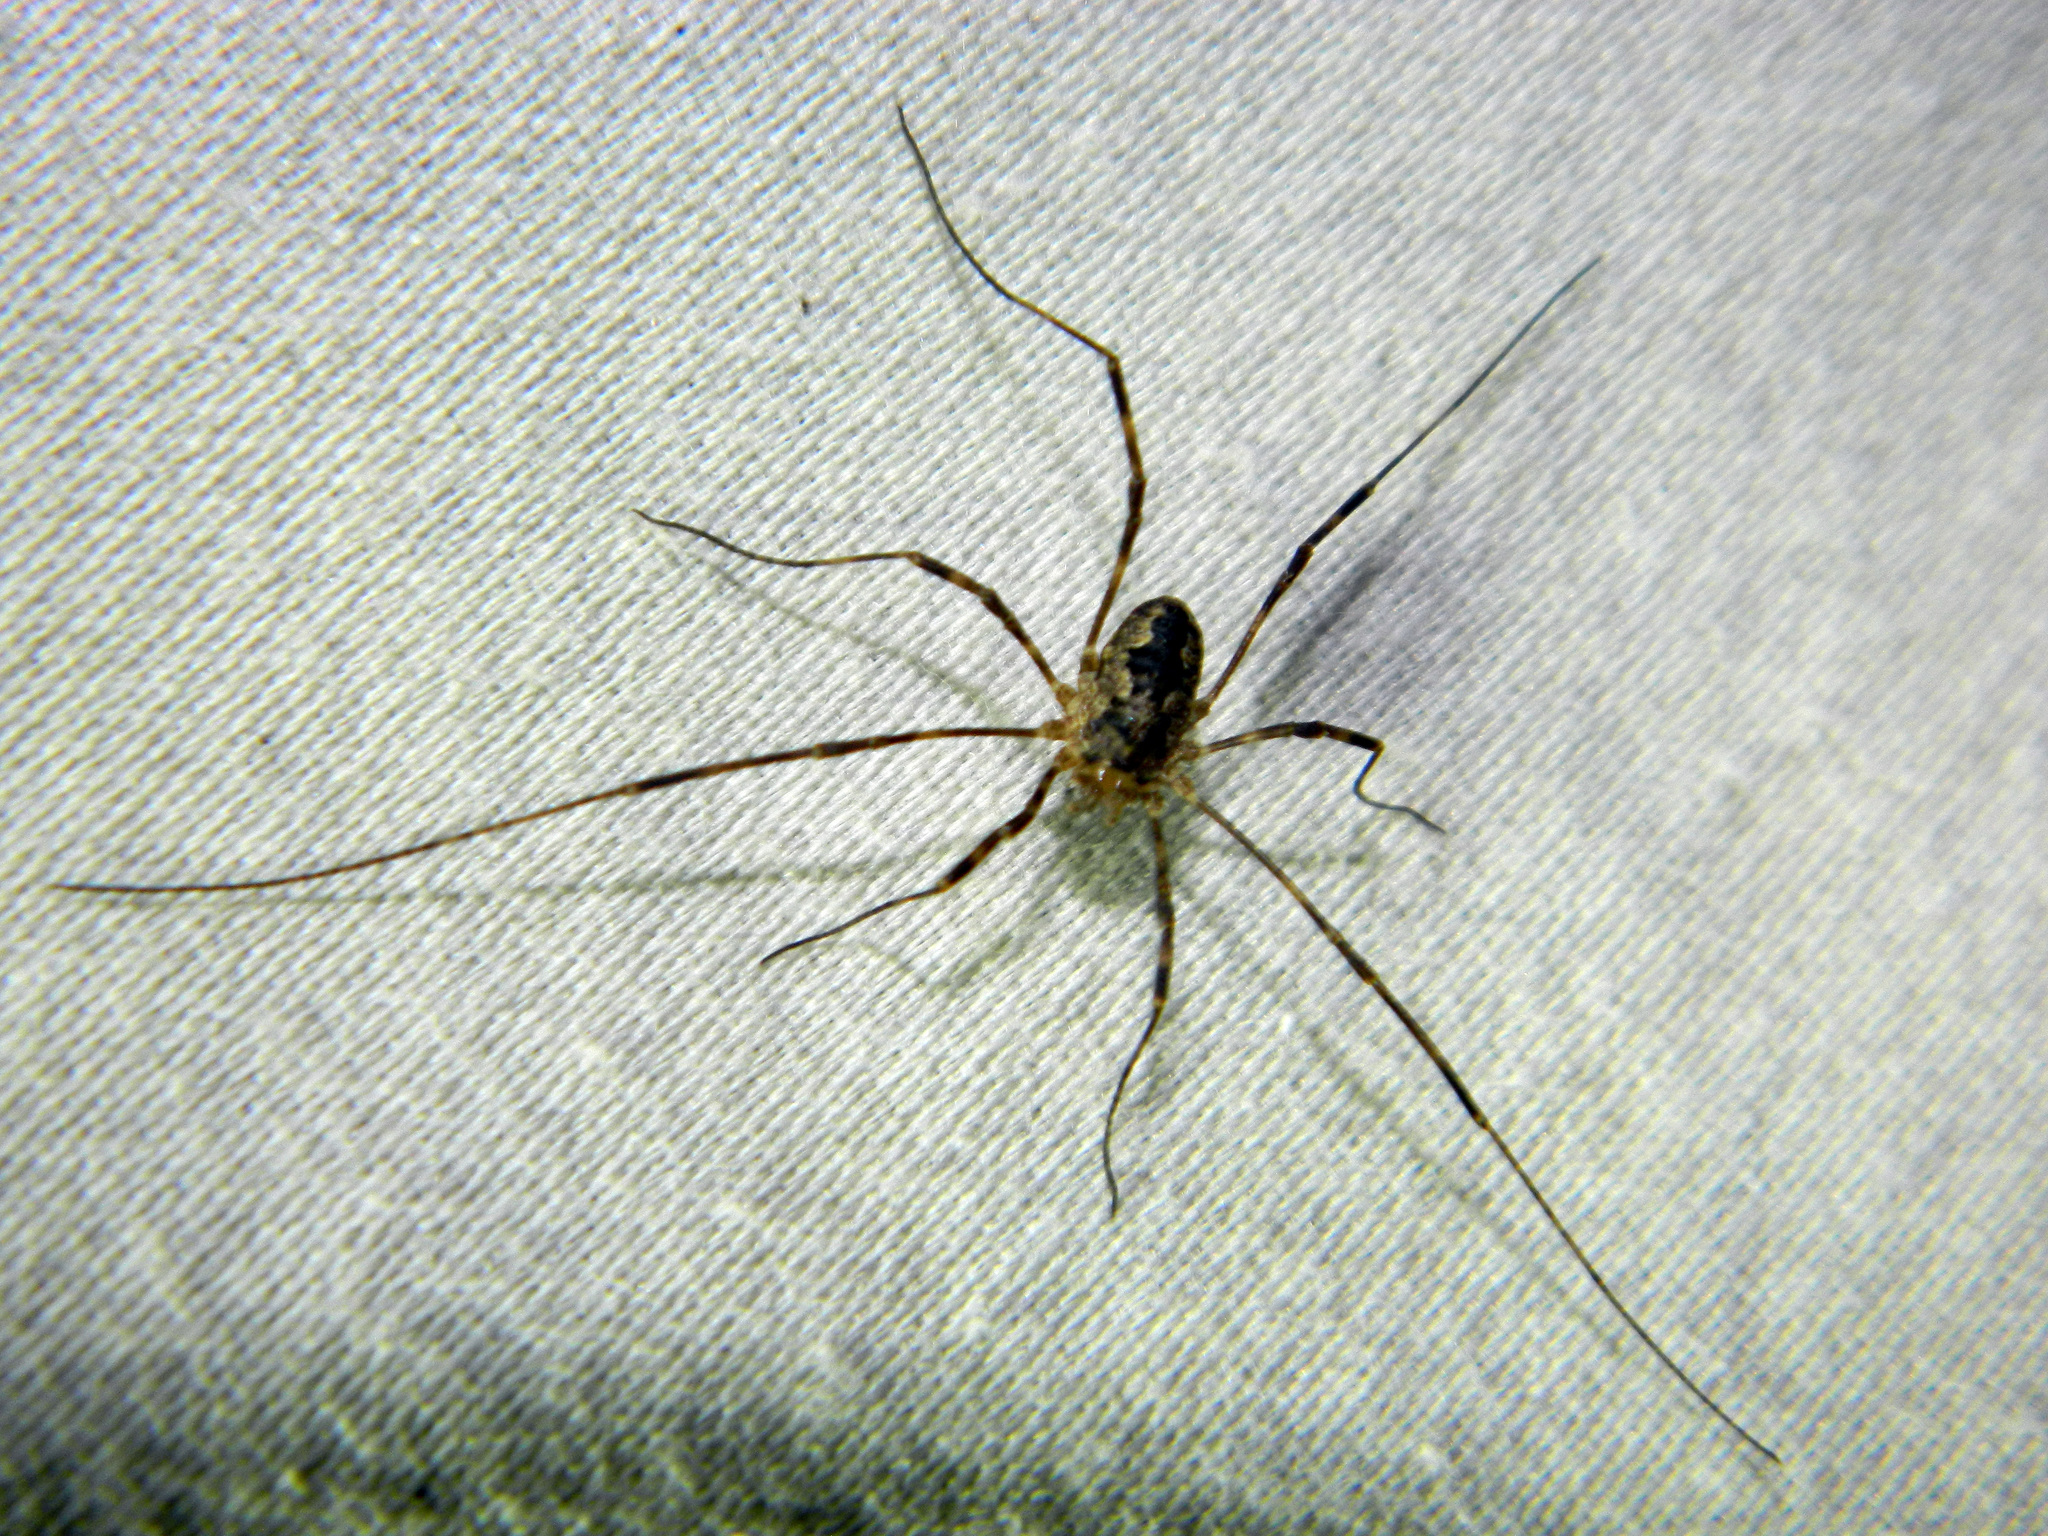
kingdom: Animalia
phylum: Arthropoda
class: Arachnida
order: Opiliones
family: Phalangiidae
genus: Odiellus
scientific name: Odiellus pictus
